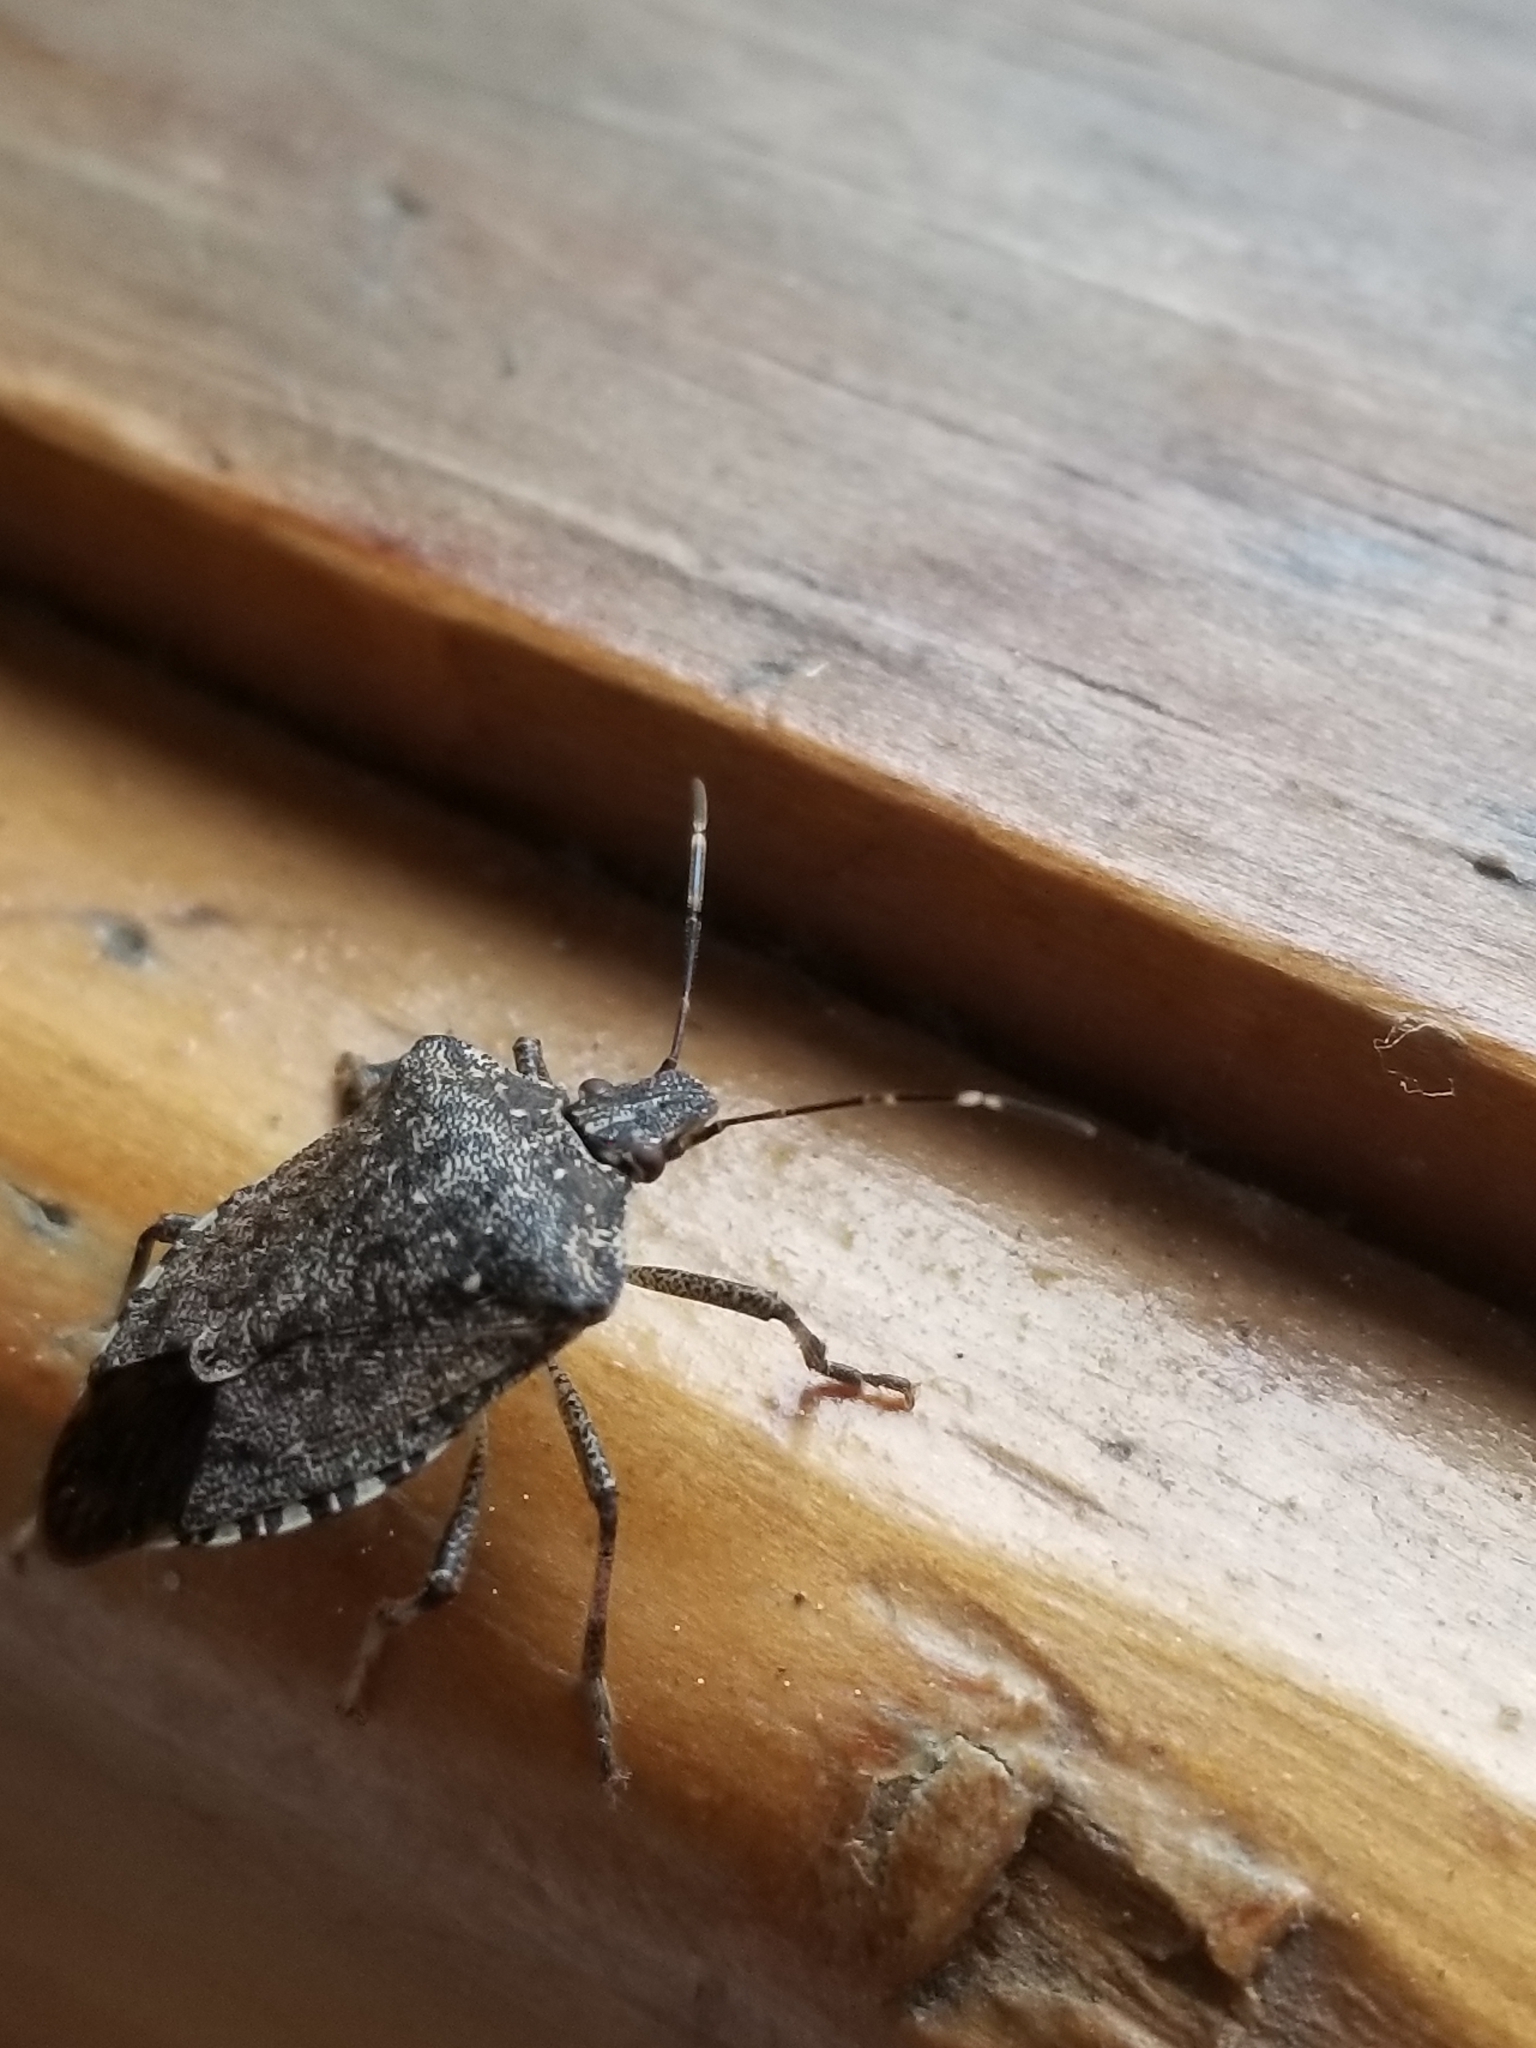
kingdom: Animalia
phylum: Arthropoda
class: Insecta
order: Hemiptera
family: Pentatomidae
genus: Halyomorpha
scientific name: Halyomorpha halys
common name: Brown marmorated stink bug
